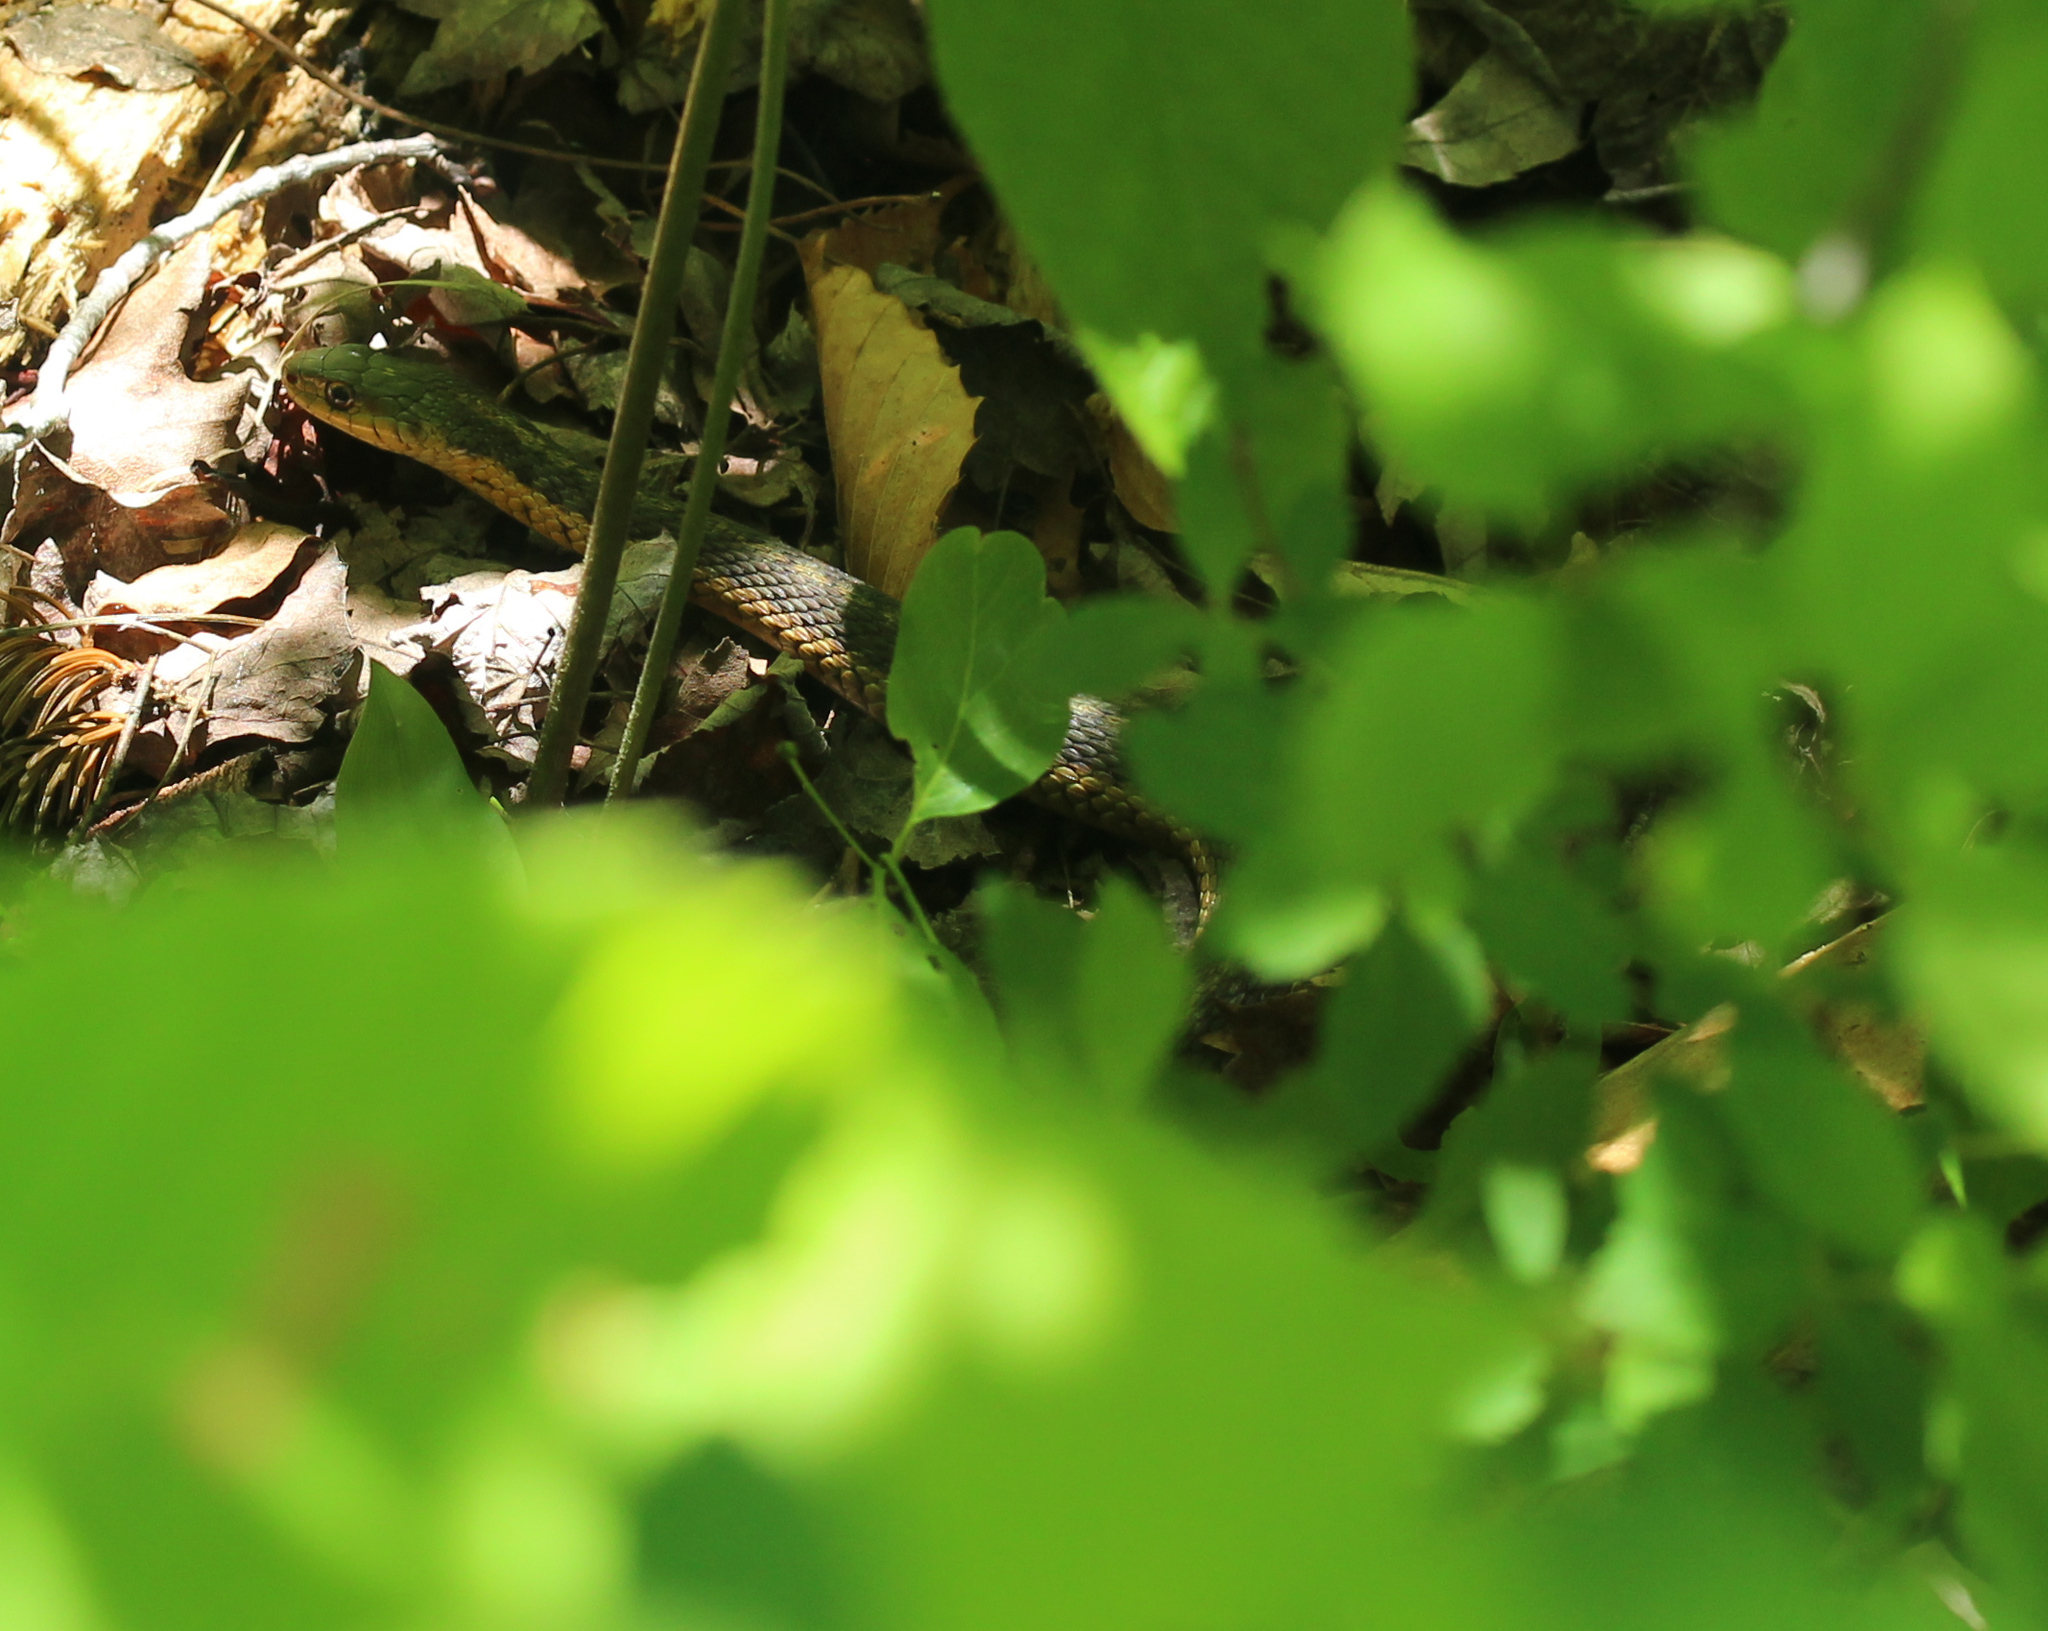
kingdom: Animalia
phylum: Chordata
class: Squamata
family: Colubridae
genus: Thamnophis
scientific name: Thamnophis sirtalis
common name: Common garter snake
